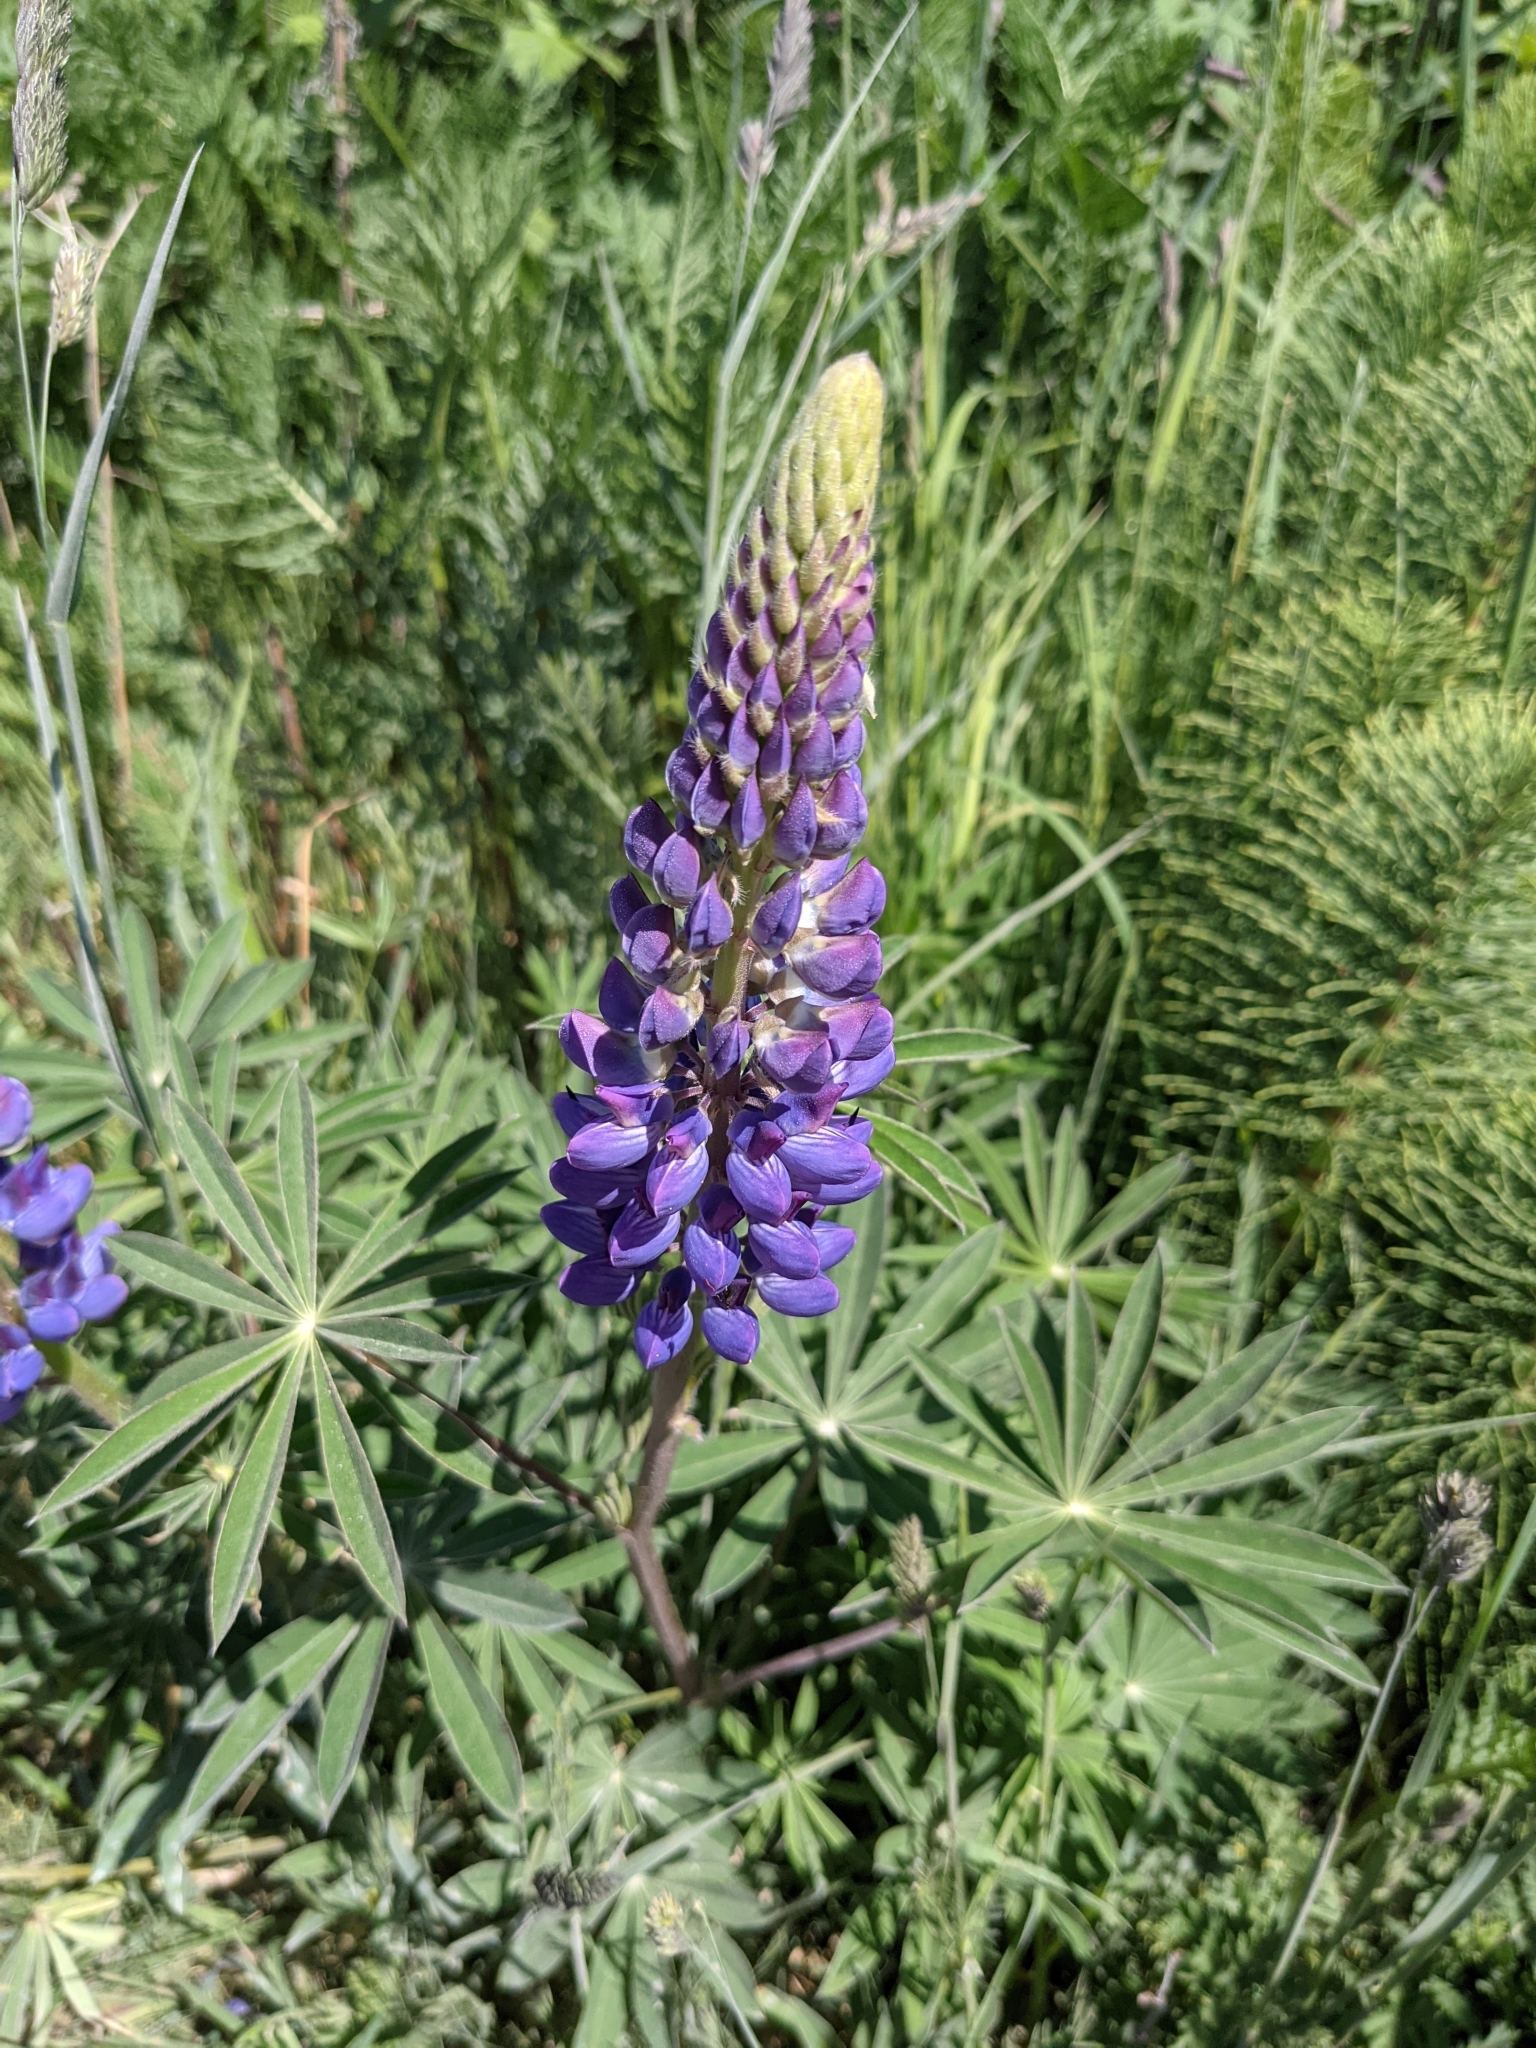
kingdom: Plantae
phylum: Tracheophyta
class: Magnoliopsida
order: Fabales
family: Fabaceae
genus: Lupinus
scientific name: Lupinus polyphyllus
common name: Garden lupin
